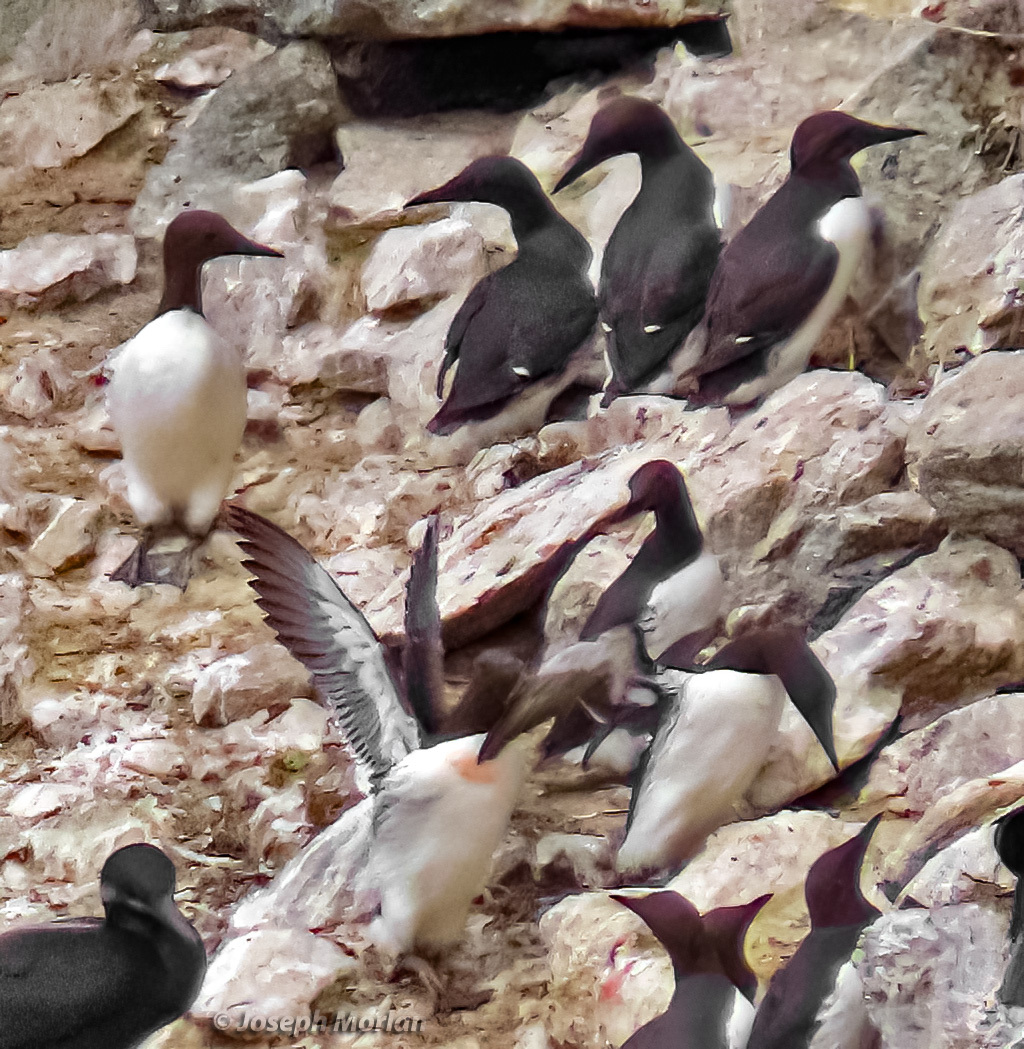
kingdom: Animalia
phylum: Chordata
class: Aves
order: Charadriiformes
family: Alcidae
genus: Uria
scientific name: Uria aalge
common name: Common murre
